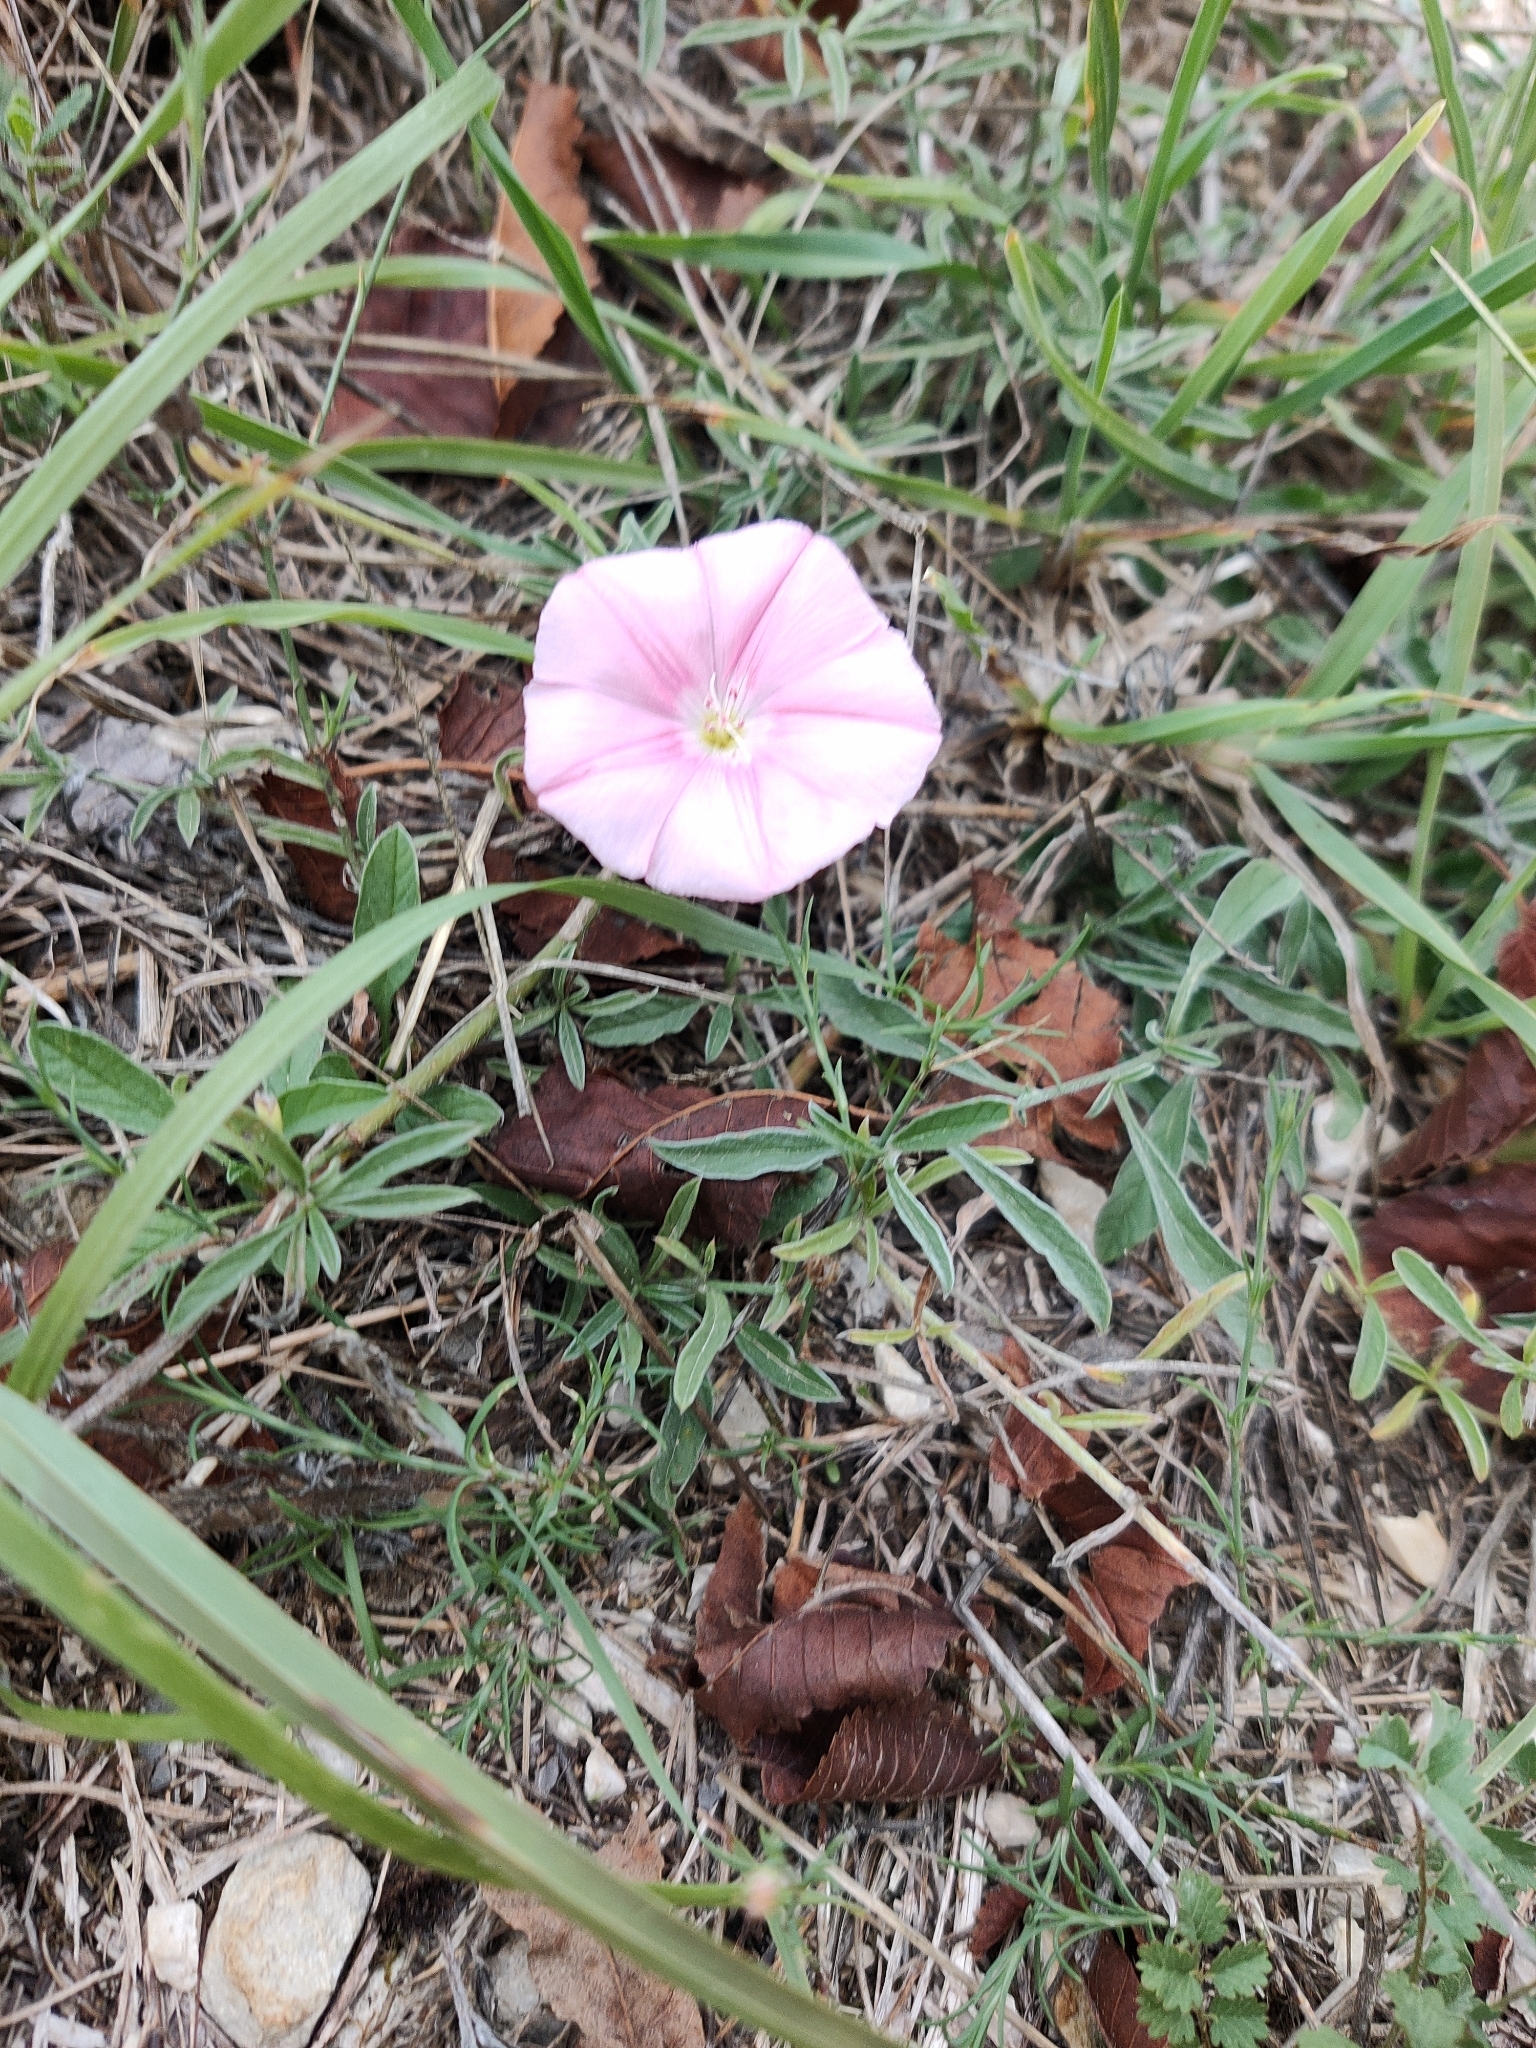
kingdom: Plantae
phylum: Tracheophyta
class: Magnoliopsida
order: Solanales
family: Convolvulaceae
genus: Convolvulus
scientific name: Convolvulus cantabrica
